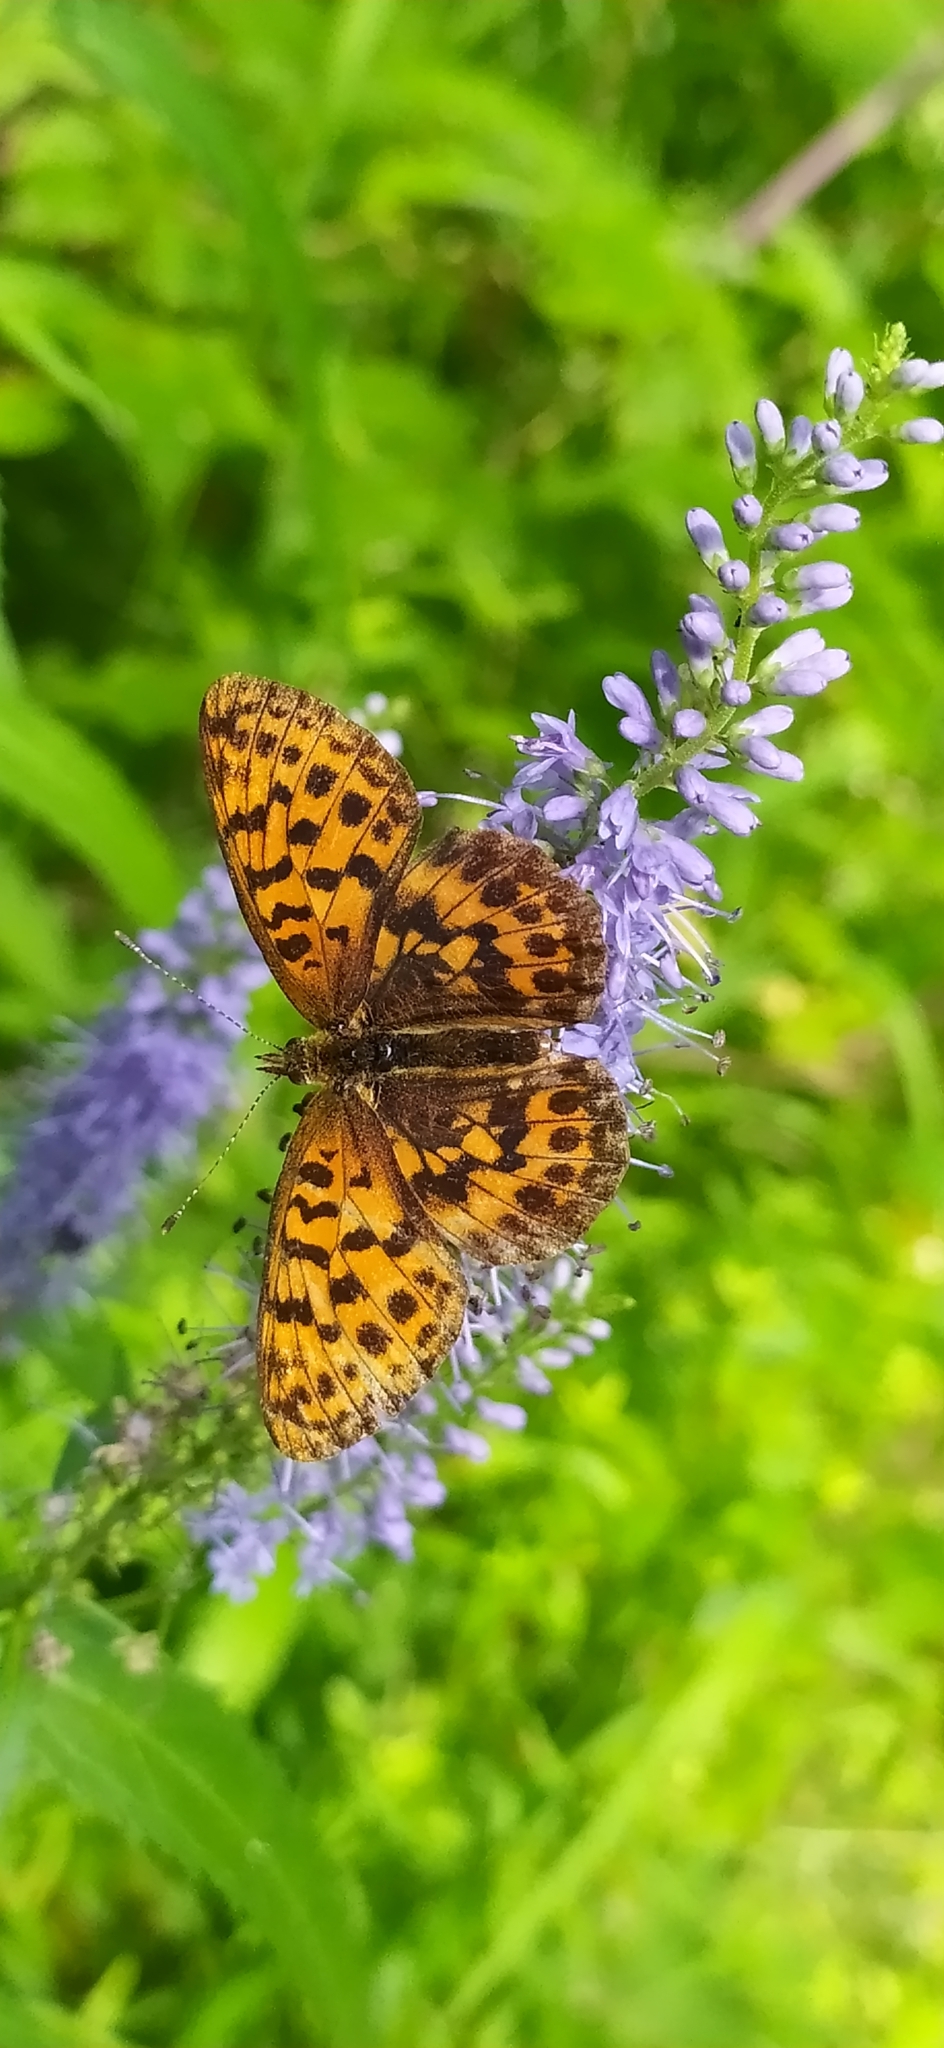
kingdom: Animalia
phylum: Arthropoda
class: Insecta
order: Lepidoptera
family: Nymphalidae
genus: Boloria
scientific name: Boloria thore
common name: Thor's fritillary
